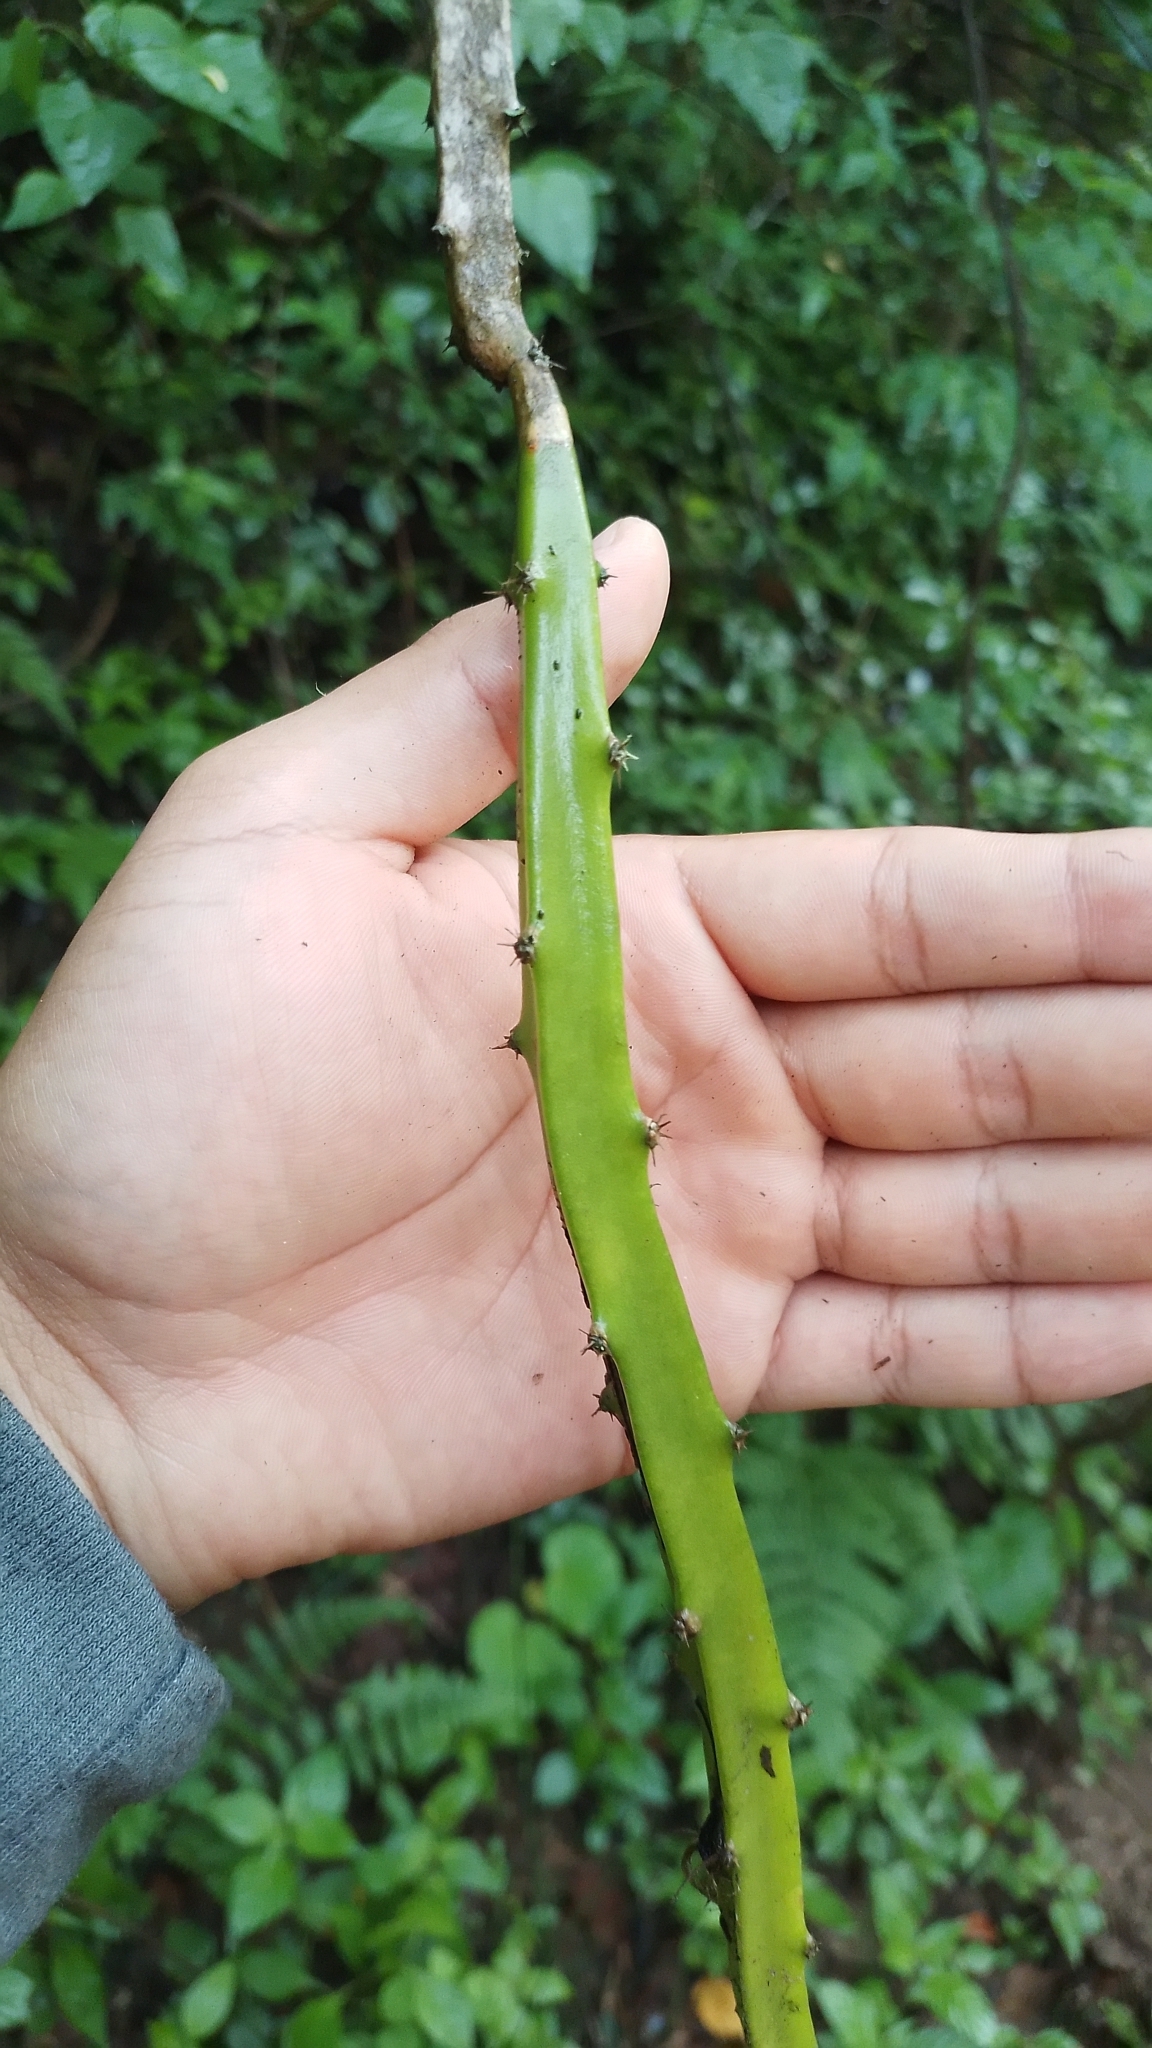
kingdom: Plantae
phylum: Tracheophyta
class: Magnoliopsida
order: Caryophyllales
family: Cactaceae
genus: Selenicereus
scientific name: Selenicereus atropilosus
